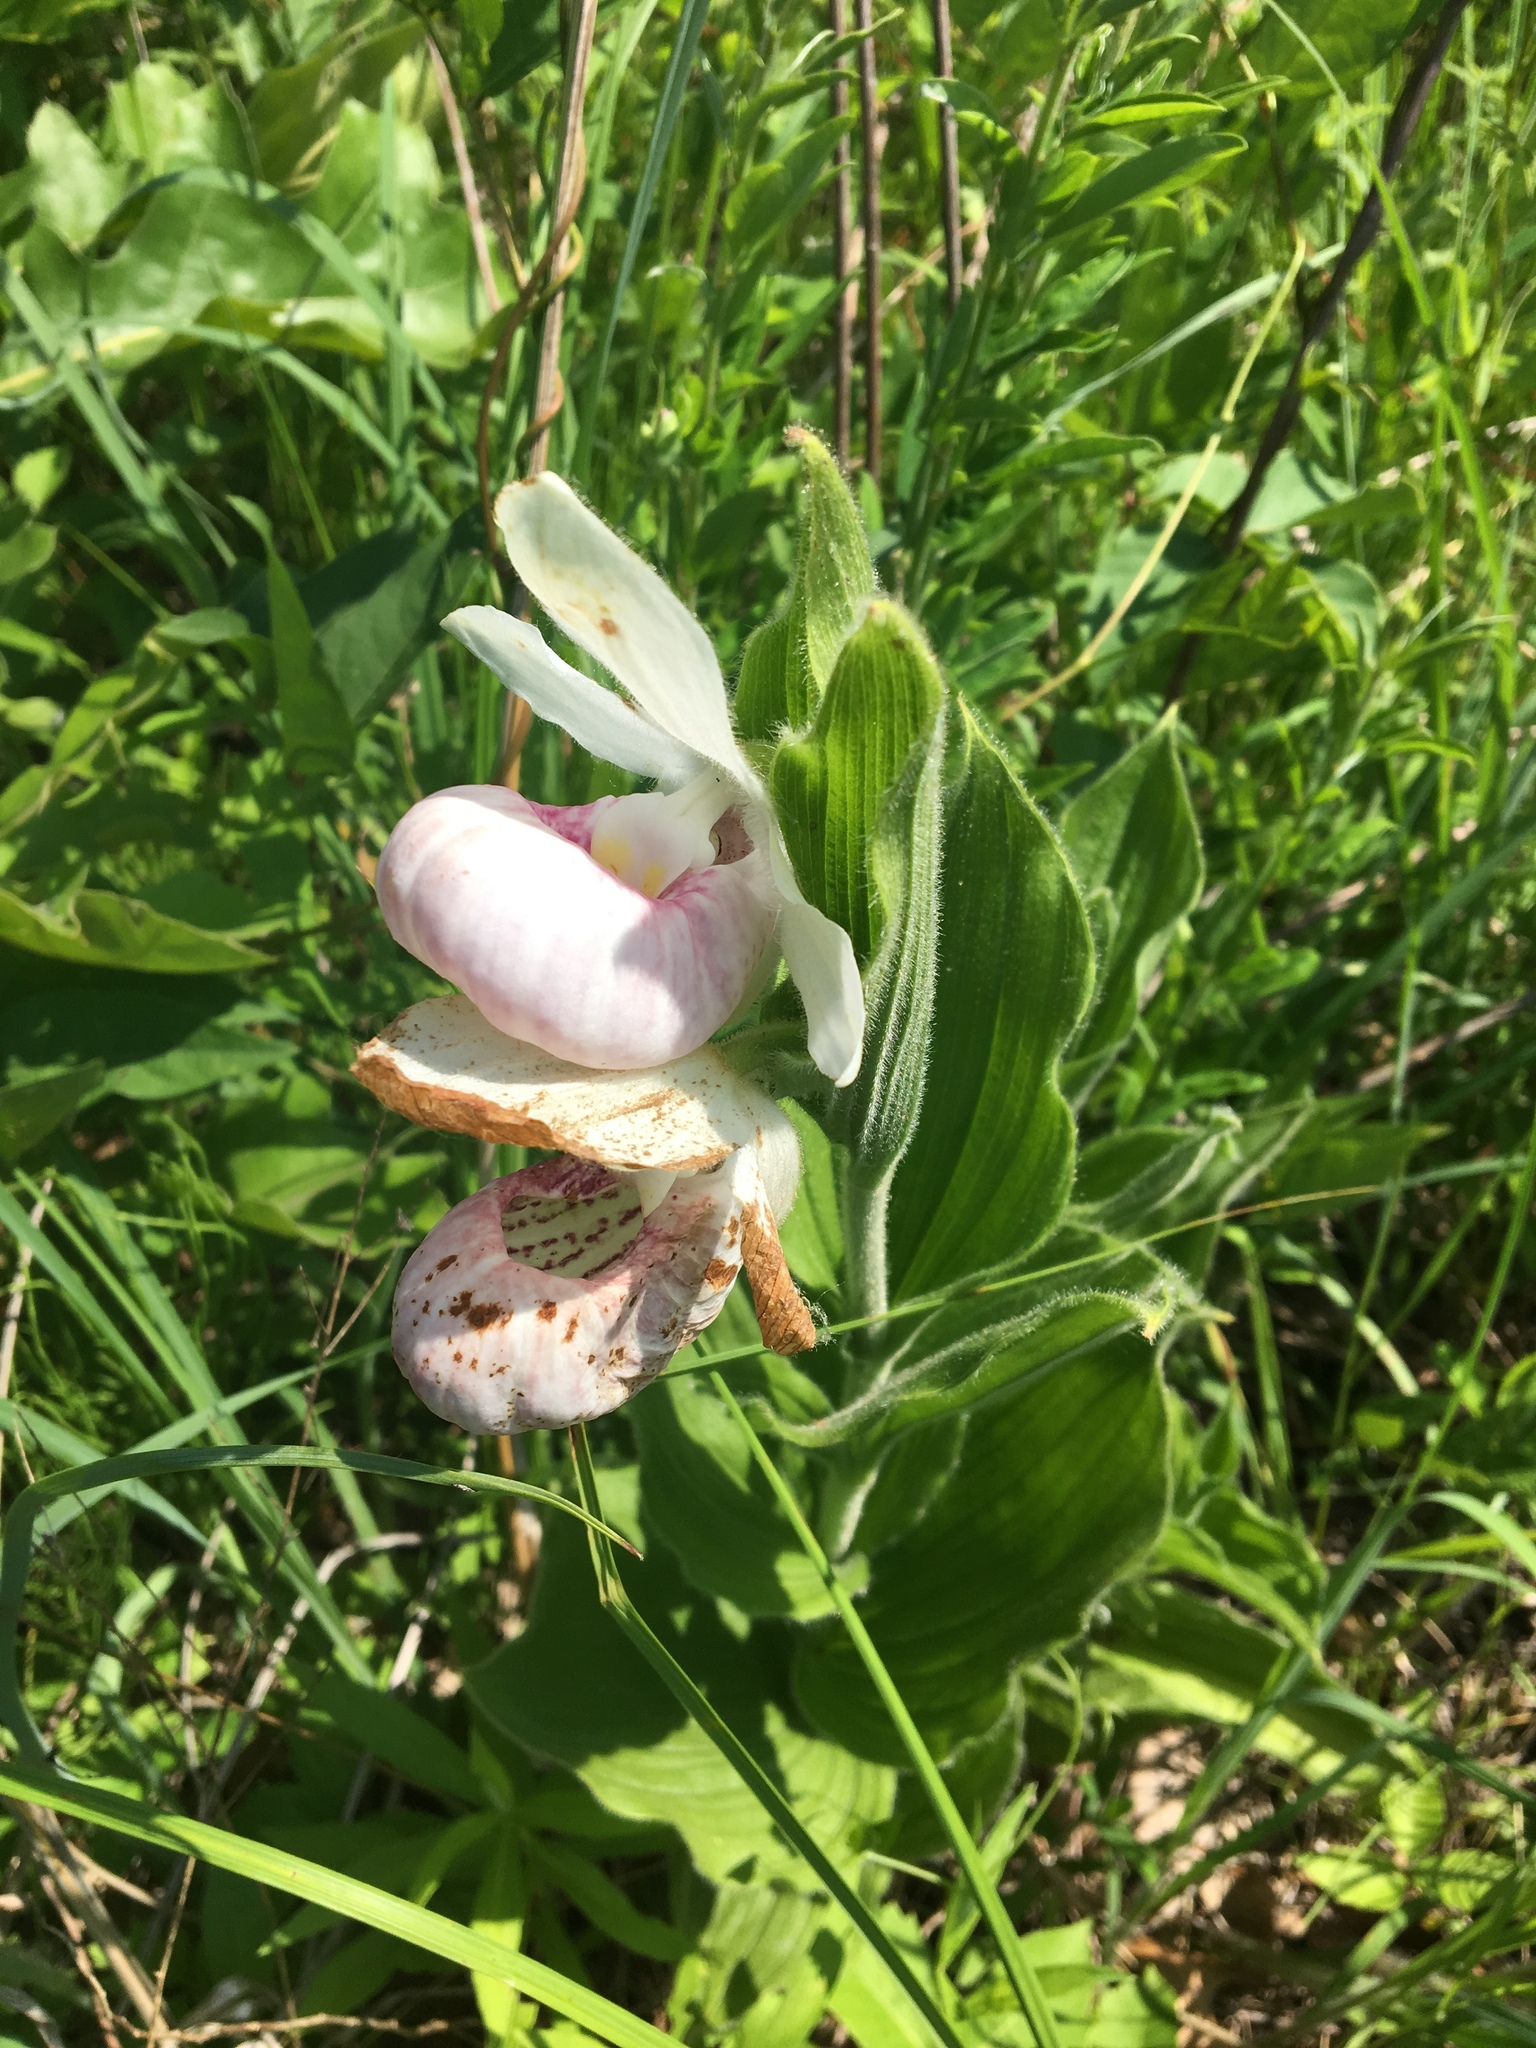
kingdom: Plantae
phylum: Tracheophyta
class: Liliopsida
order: Asparagales
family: Orchidaceae
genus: Cypripedium
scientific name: Cypripedium reginae
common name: Queen lady's-slipper
